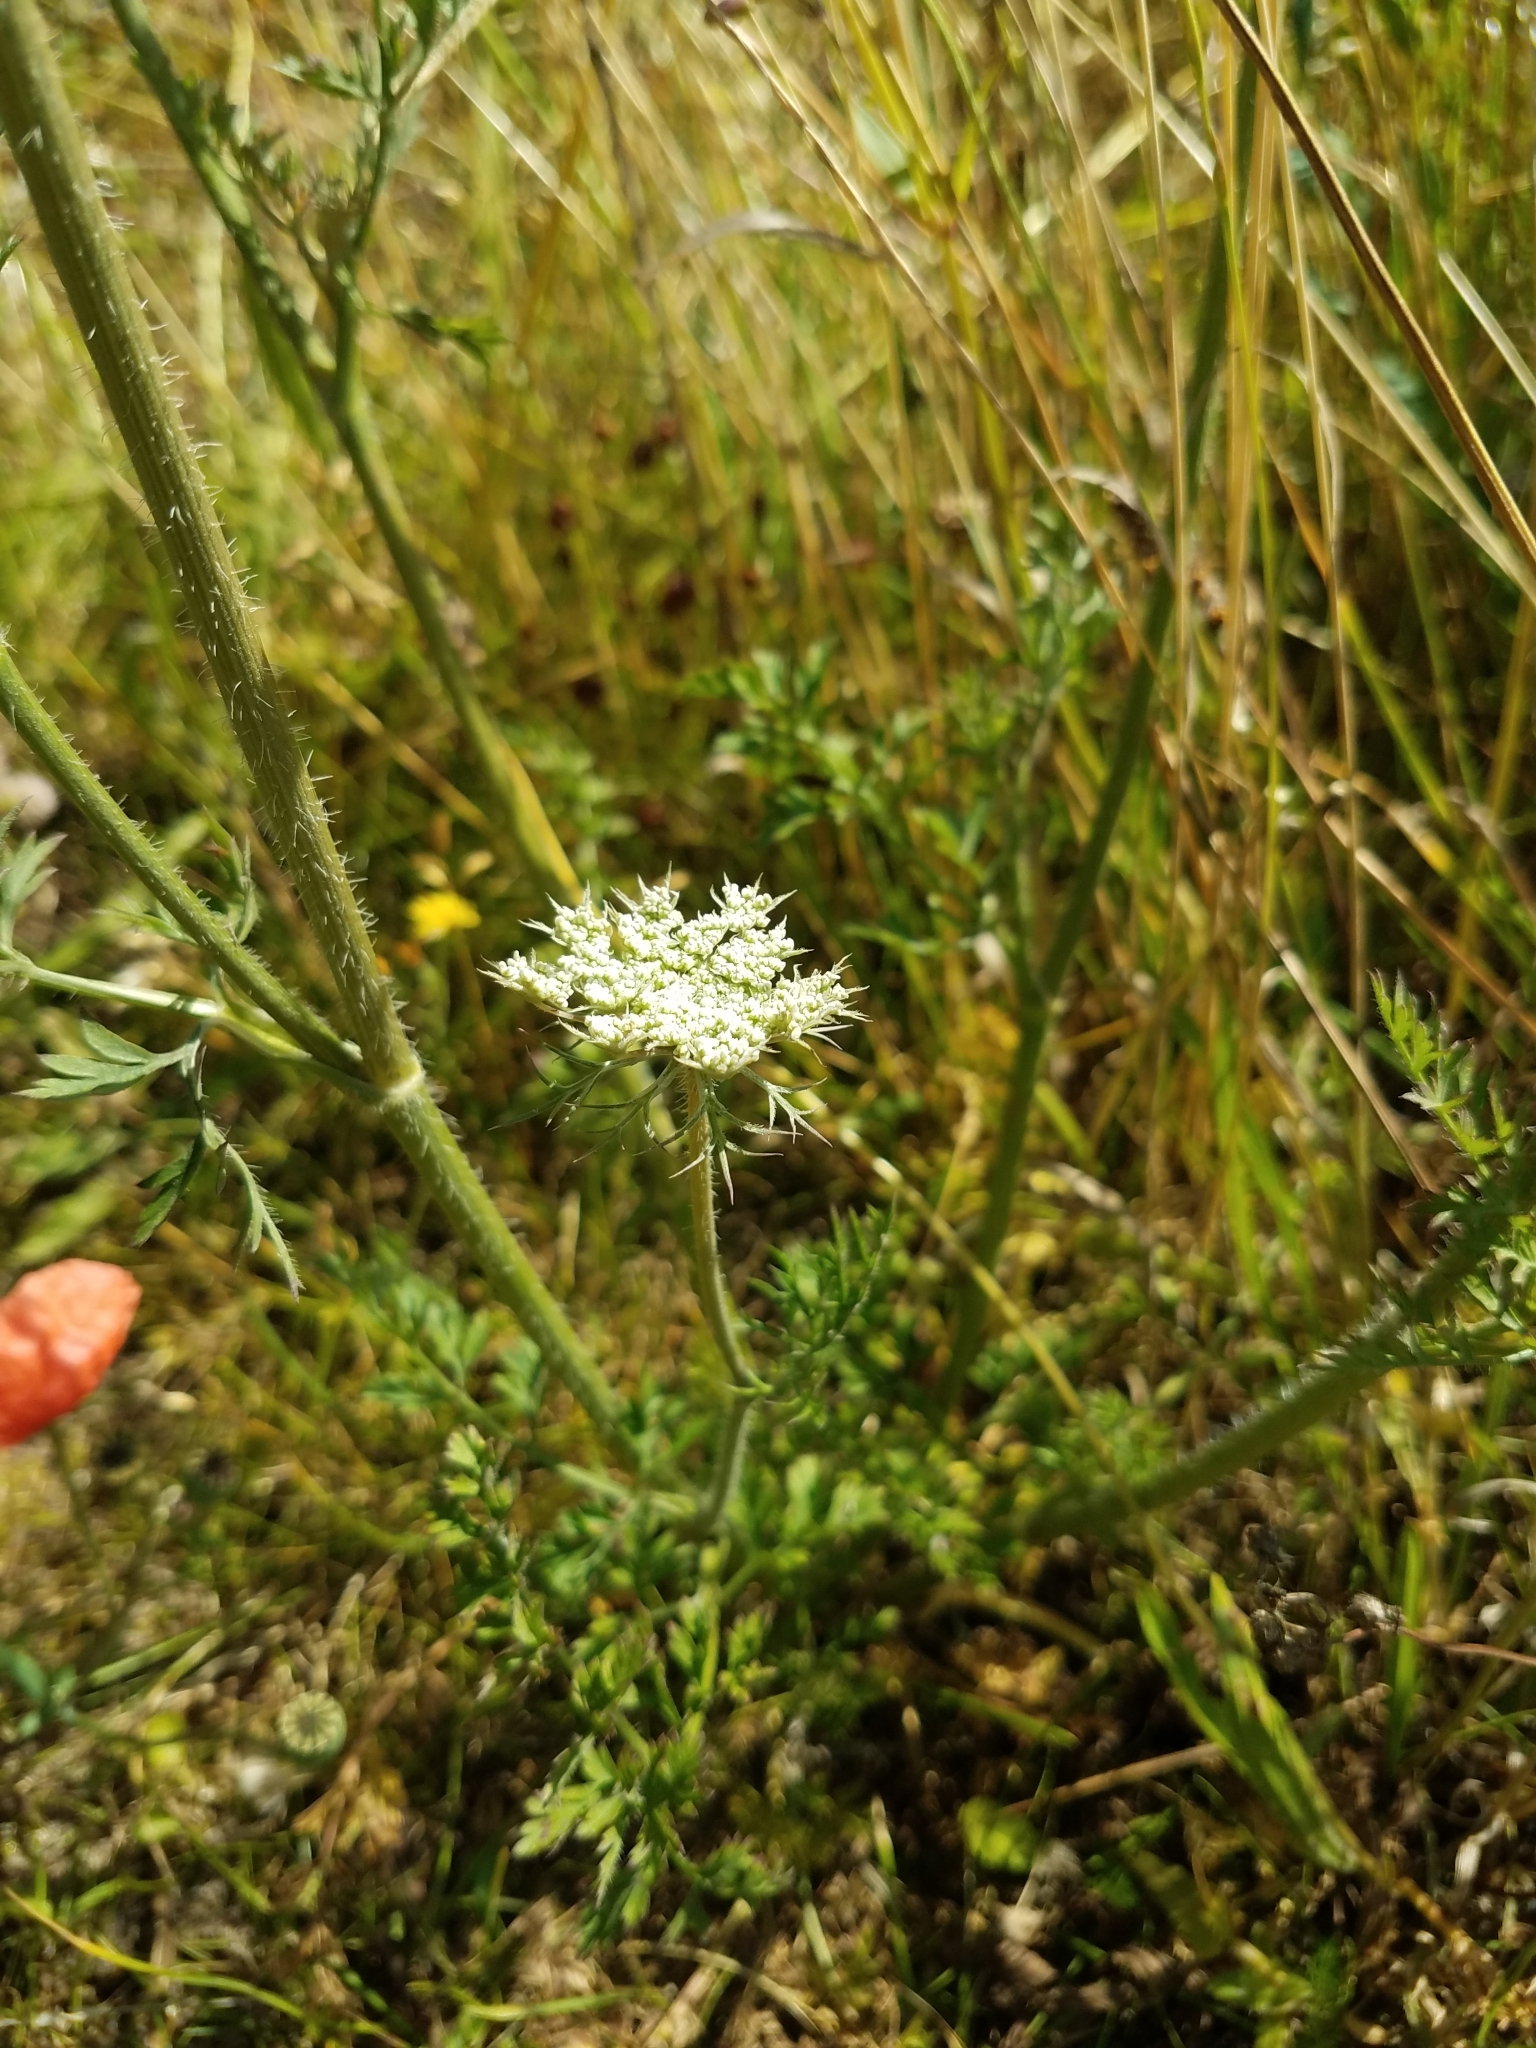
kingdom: Plantae
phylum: Tracheophyta
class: Magnoliopsida
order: Apiales
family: Apiaceae
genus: Daucus
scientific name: Daucus carota
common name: Wild carrot
